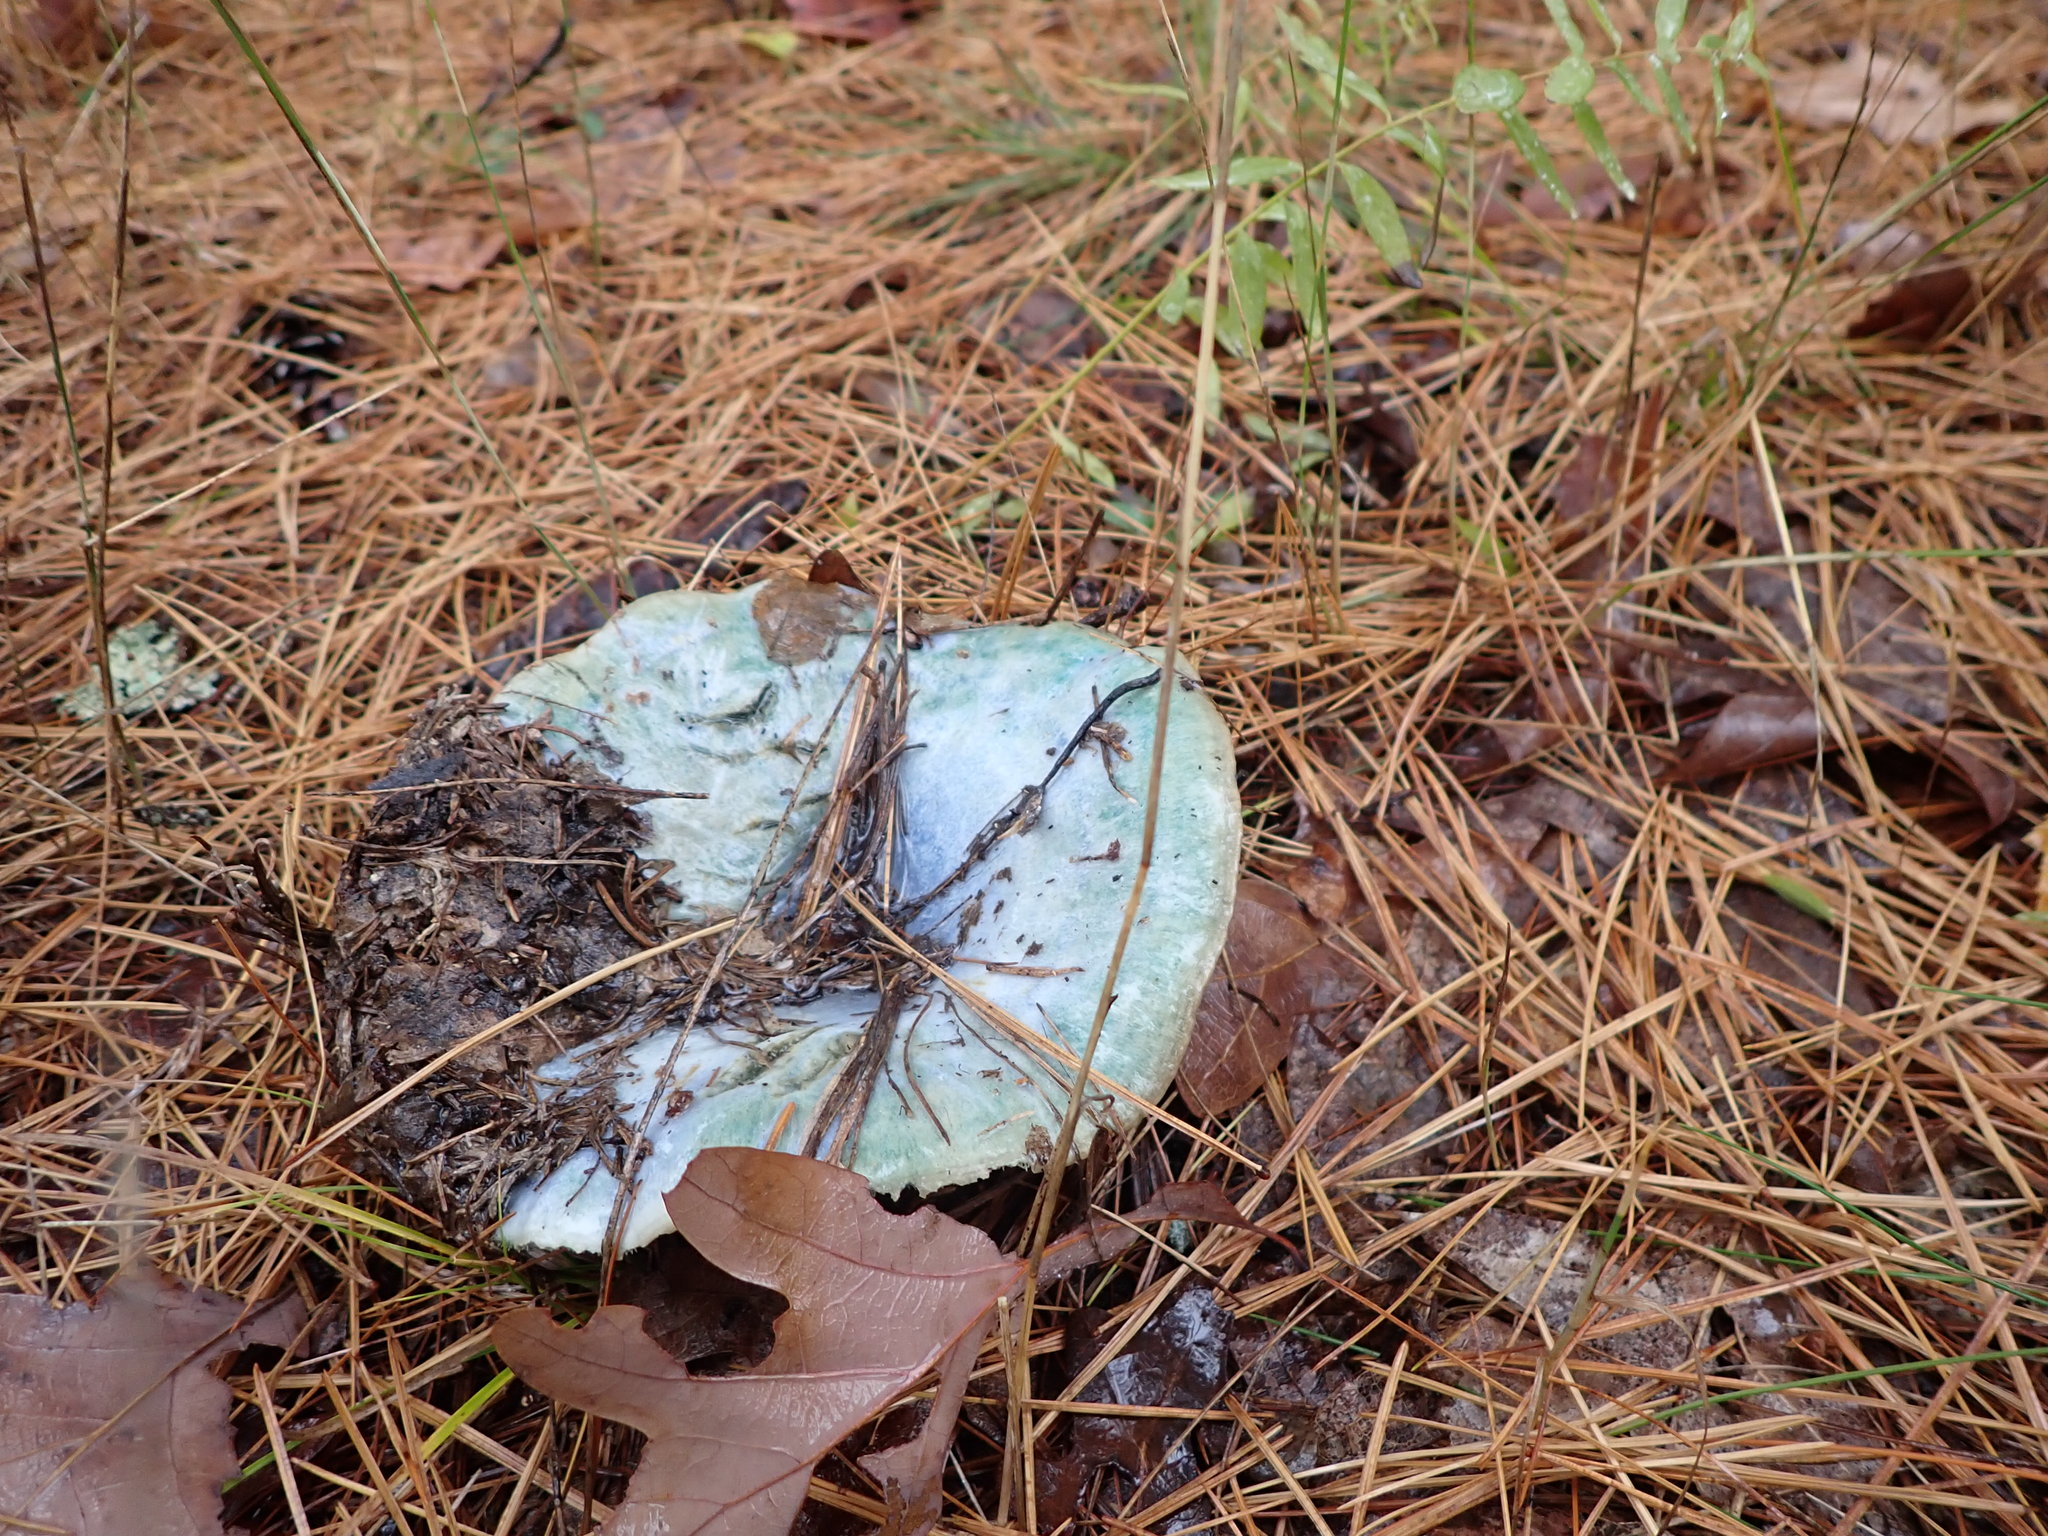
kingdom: Fungi
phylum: Basidiomycota
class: Agaricomycetes
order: Russulales
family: Russulaceae
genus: Lactarius
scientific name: Lactarius indigo
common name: Indigo milk cap
